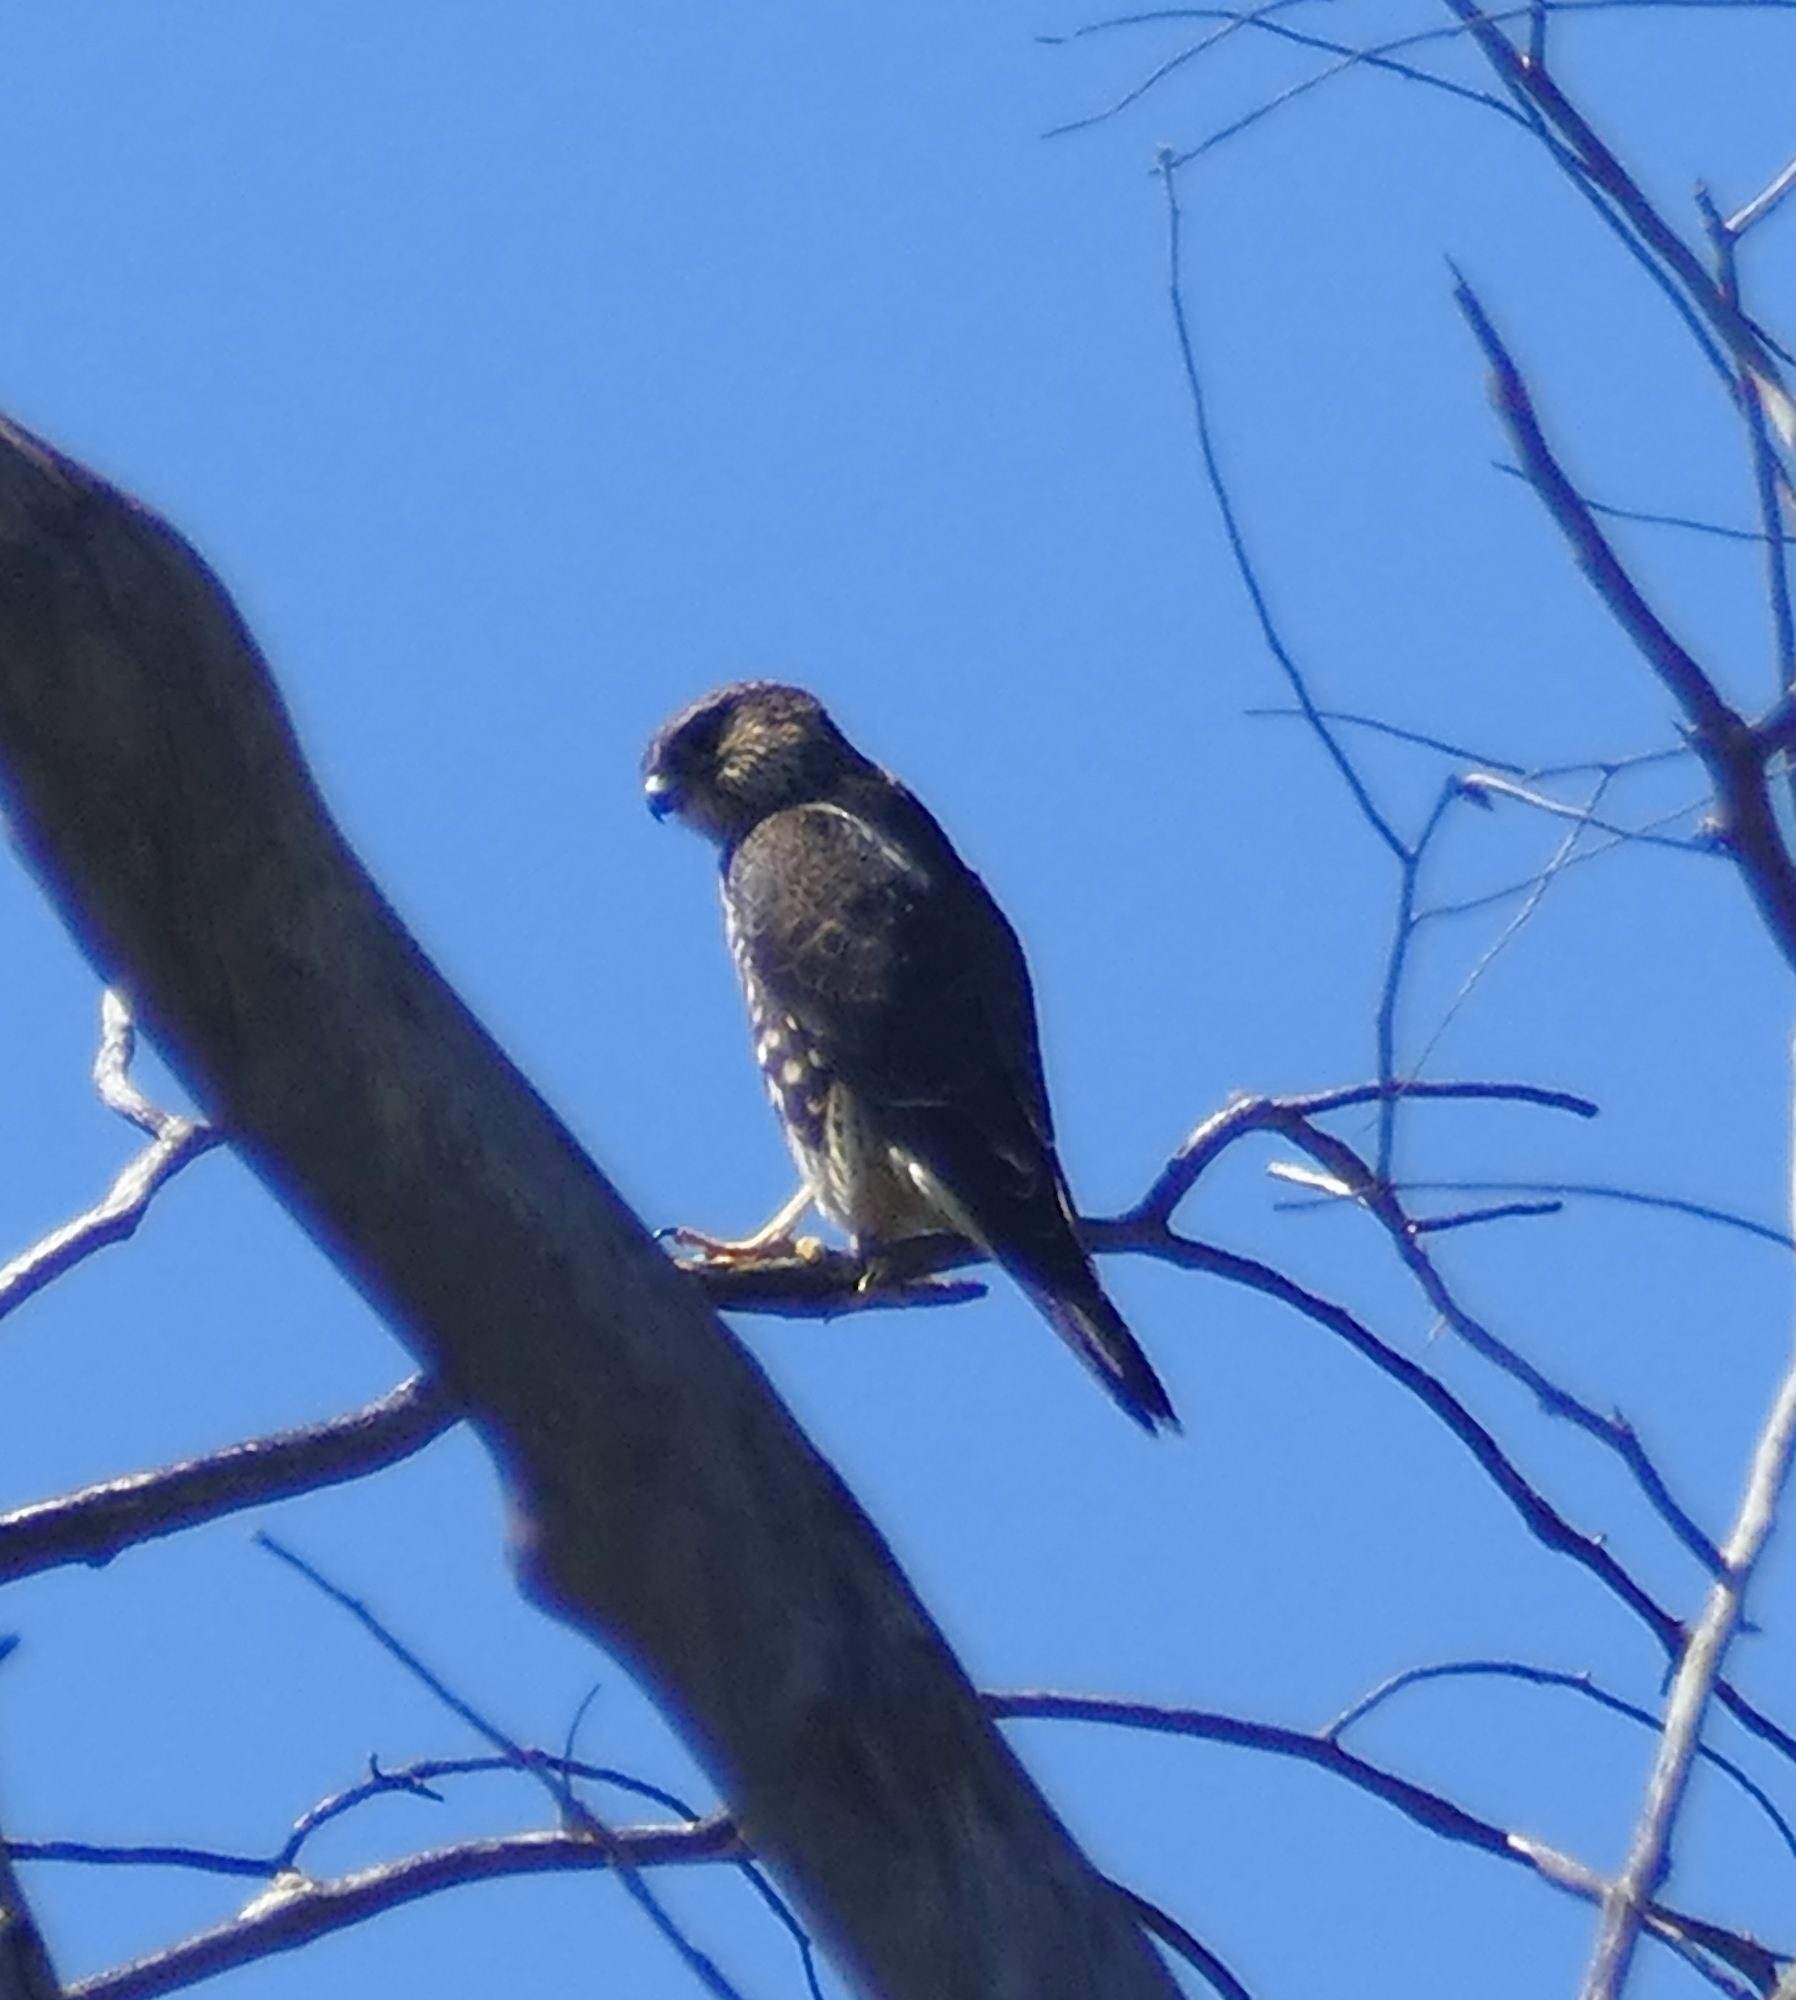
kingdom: Animalia
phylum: Chordata
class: Aves
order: Falconiformes
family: Falconidae
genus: Falco
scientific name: Falco columbarius
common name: Merlin
